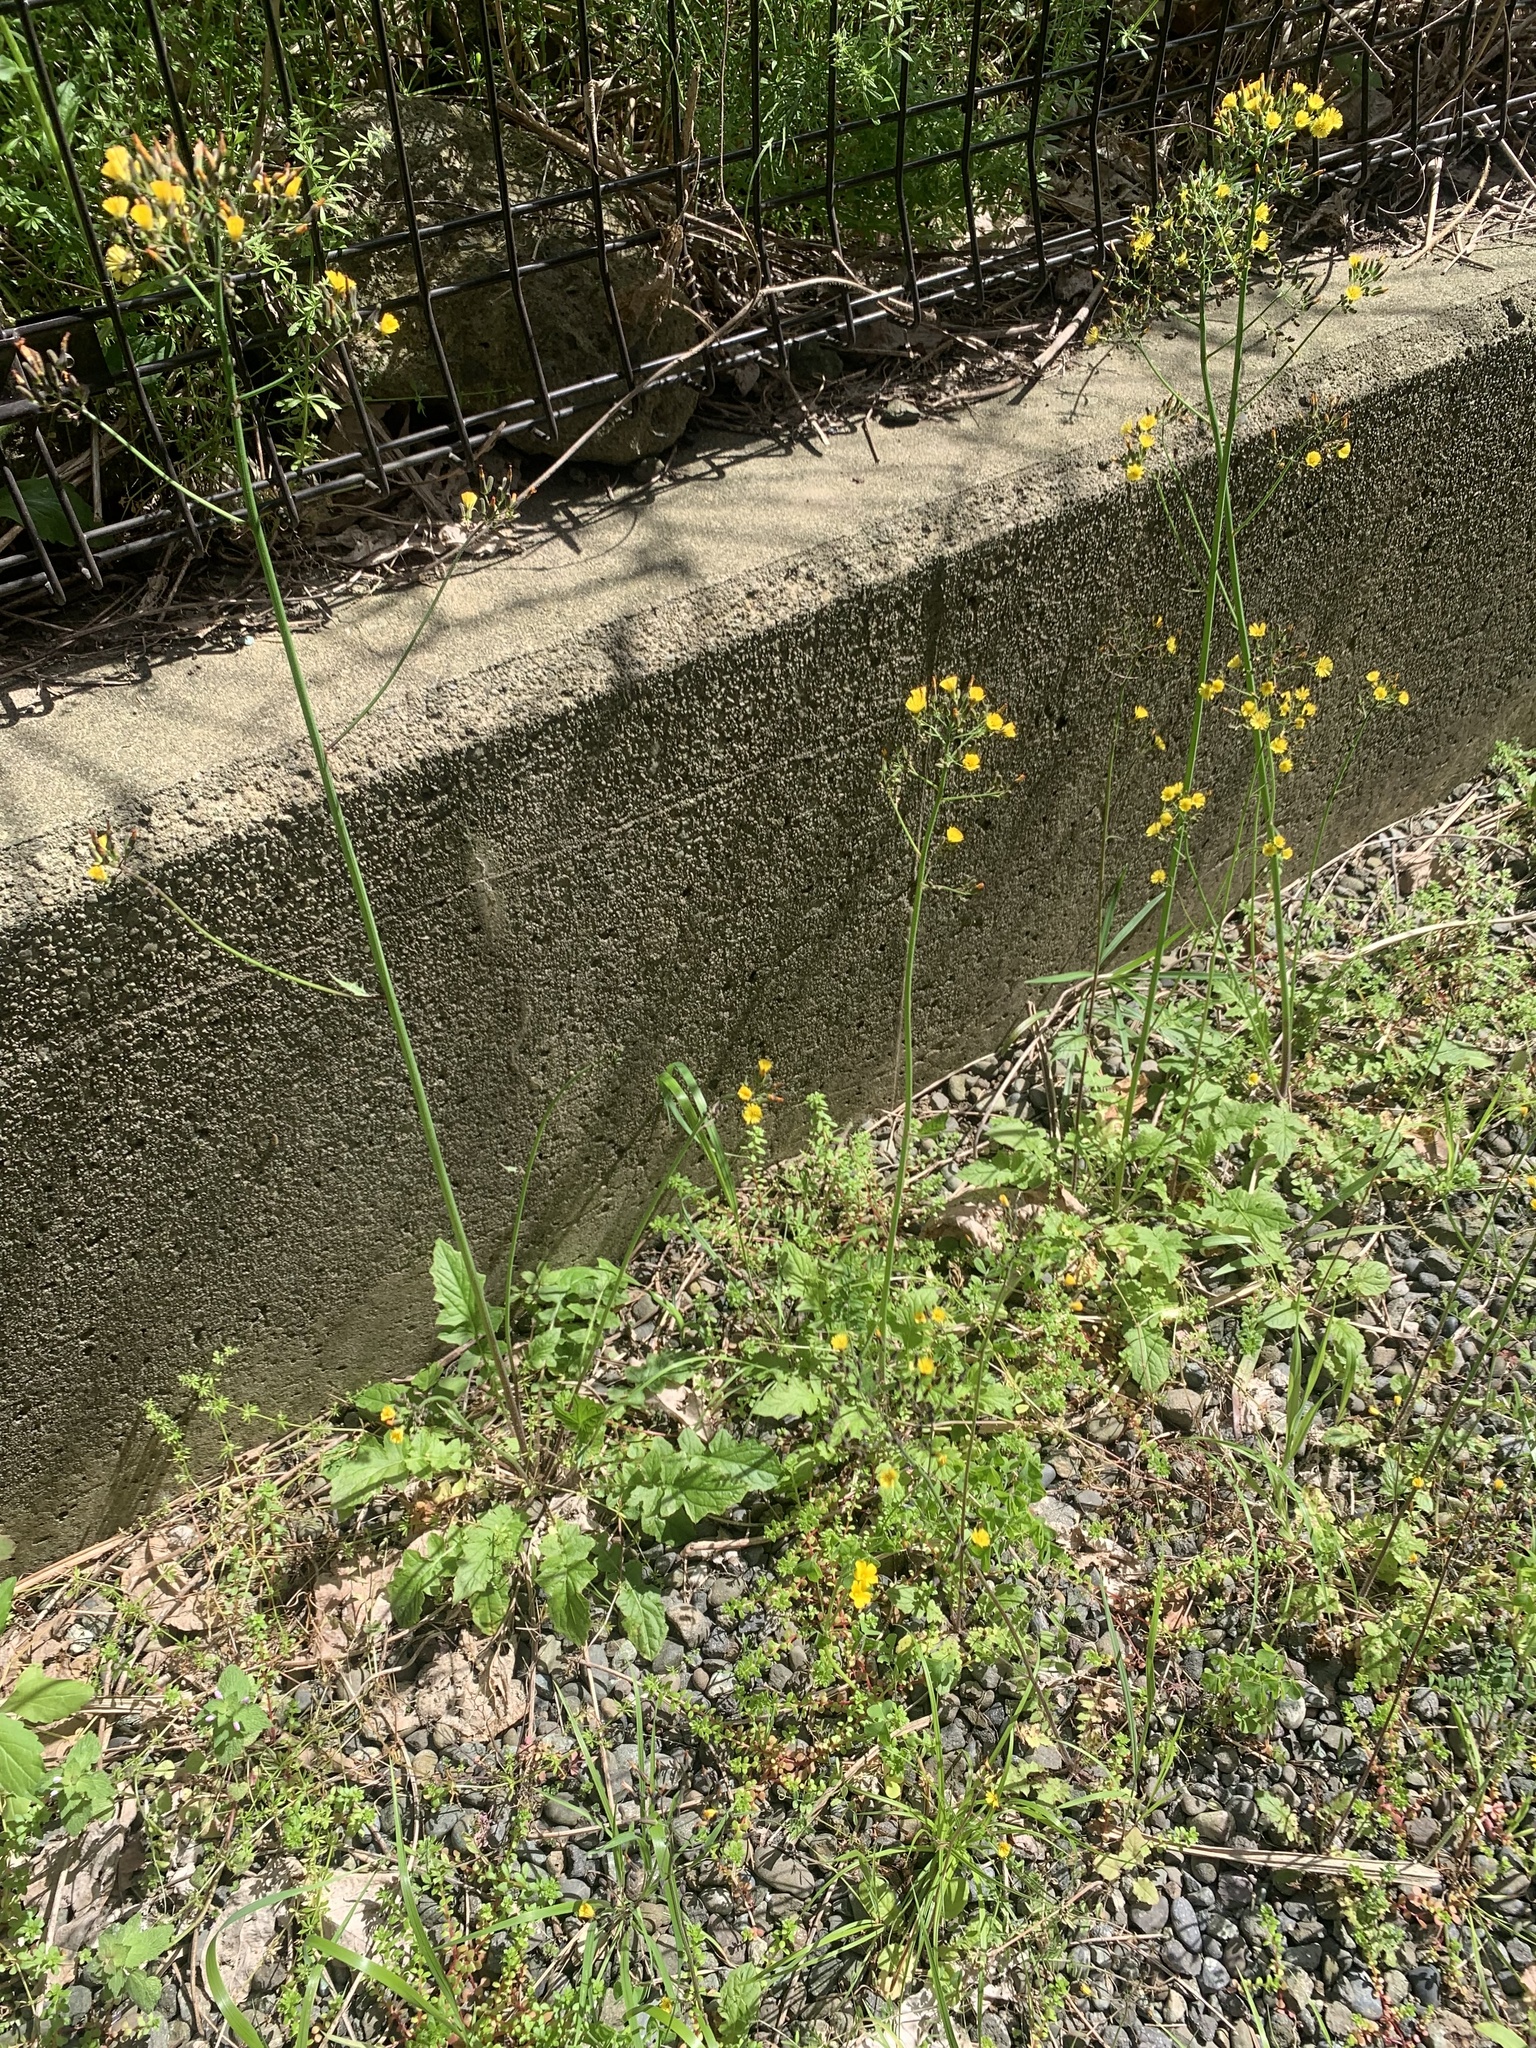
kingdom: Plantae
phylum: Tracheophyta
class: Magnoliopsida
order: Asterales
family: Asteraceae
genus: Youngia
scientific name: Youngia japonica
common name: Oriental false hawksbeard
